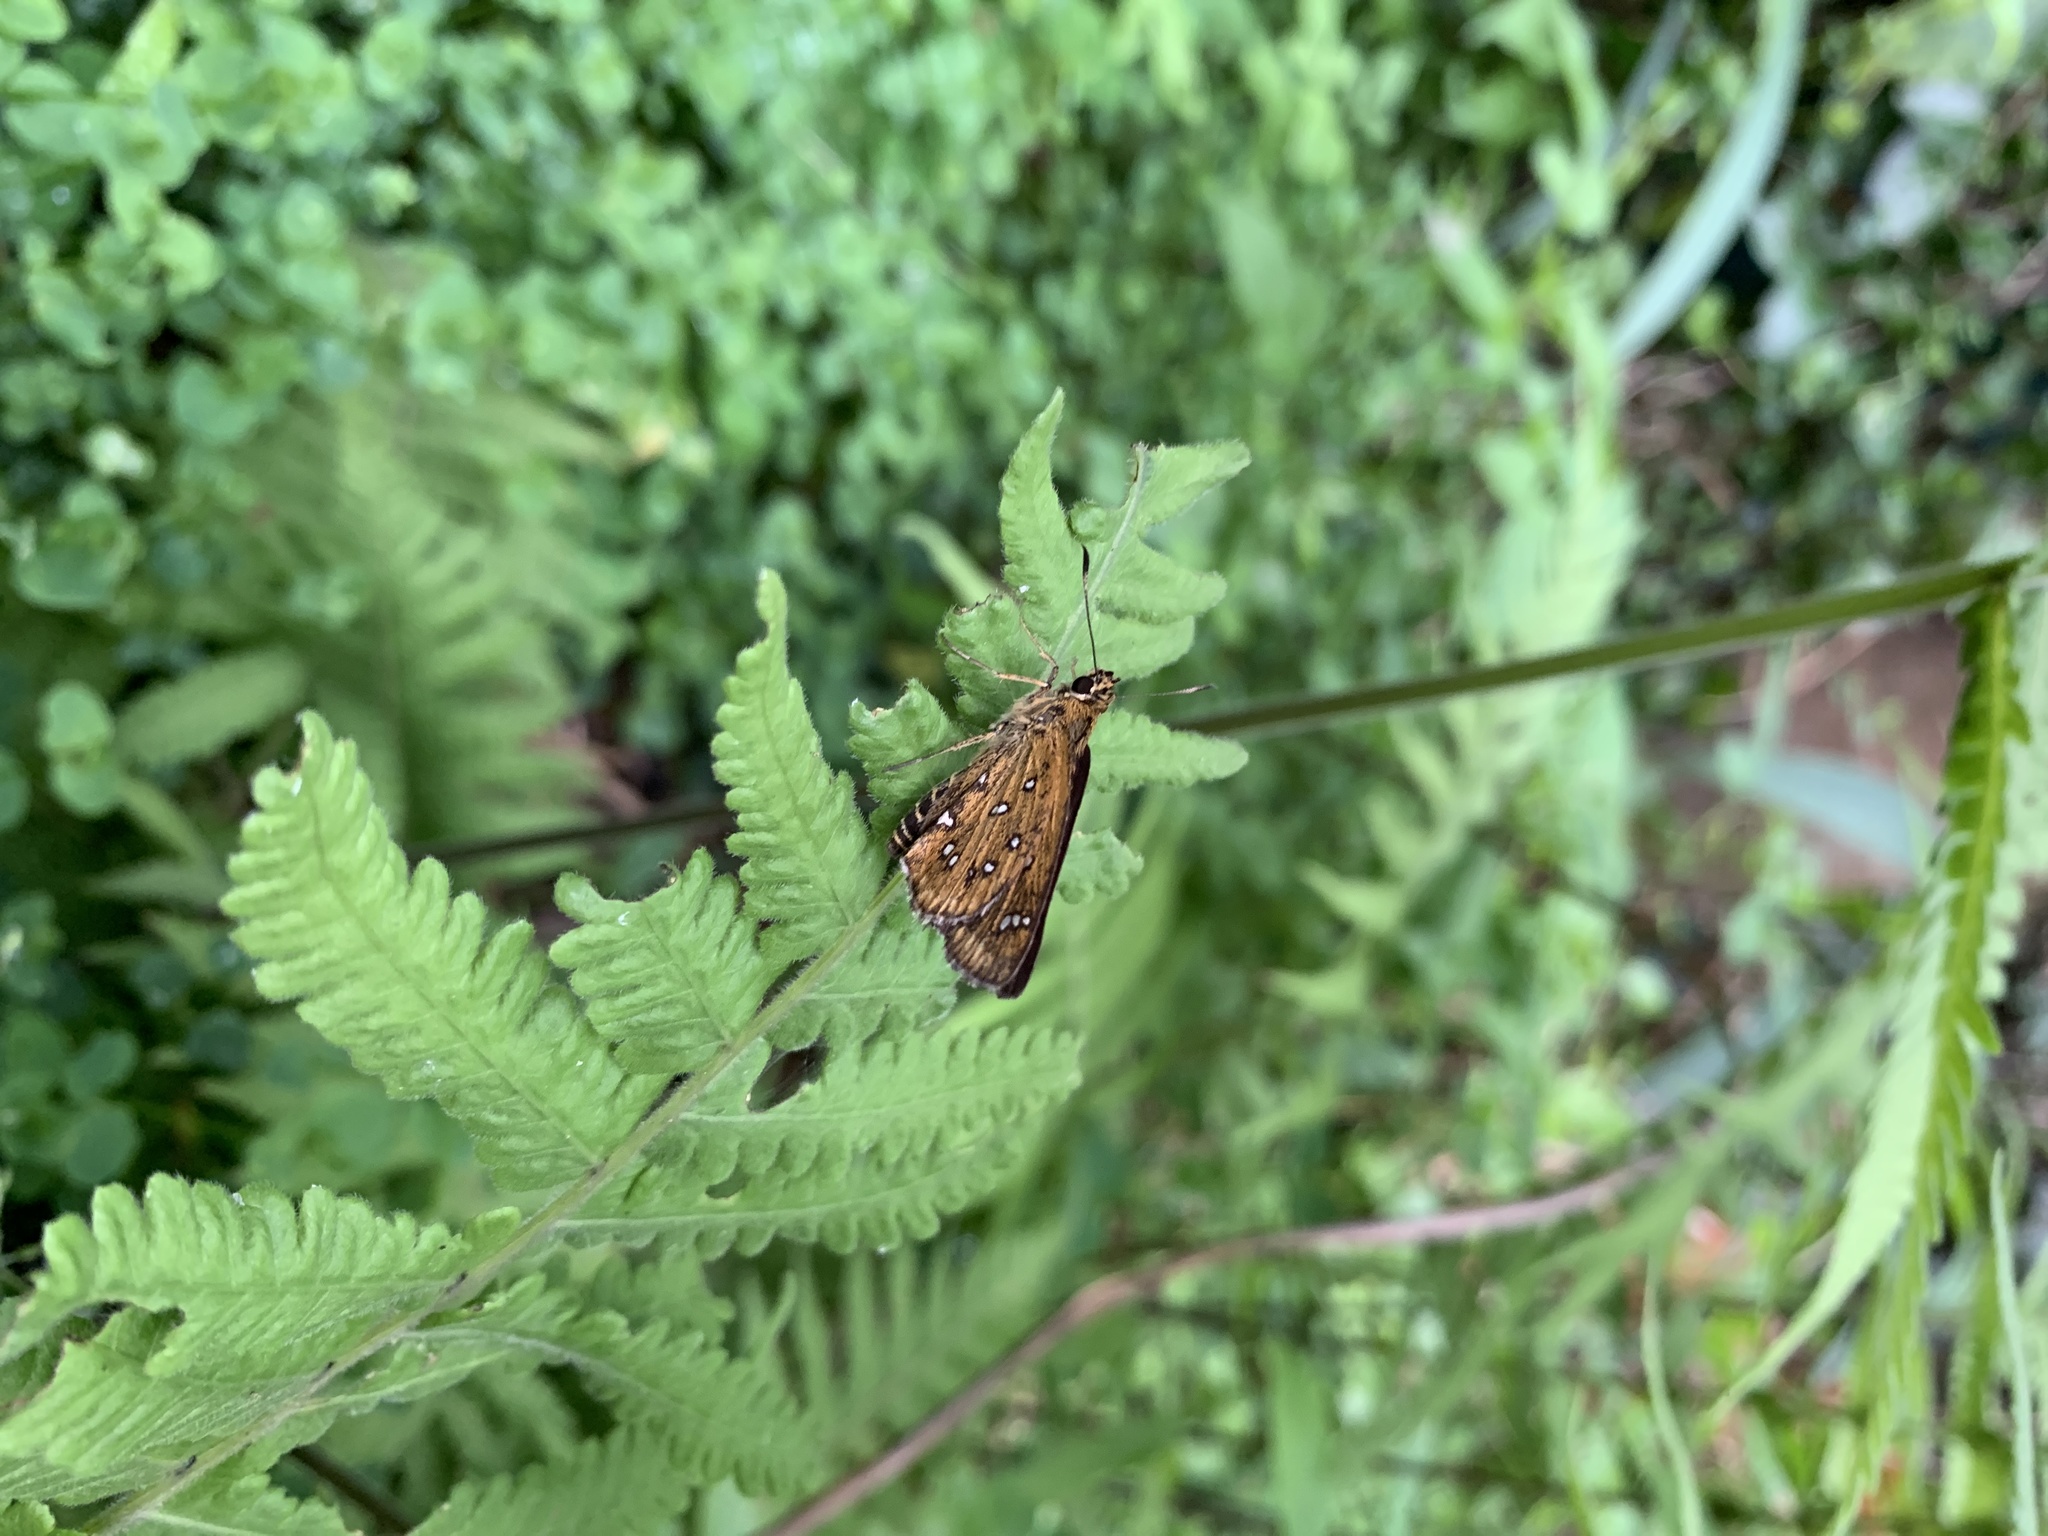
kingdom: Animalia
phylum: Arthropoda
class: Insecta
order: Lepidoptera
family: Hesperiidae
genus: Isoteinon
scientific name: Isoteinon lamprospilus
